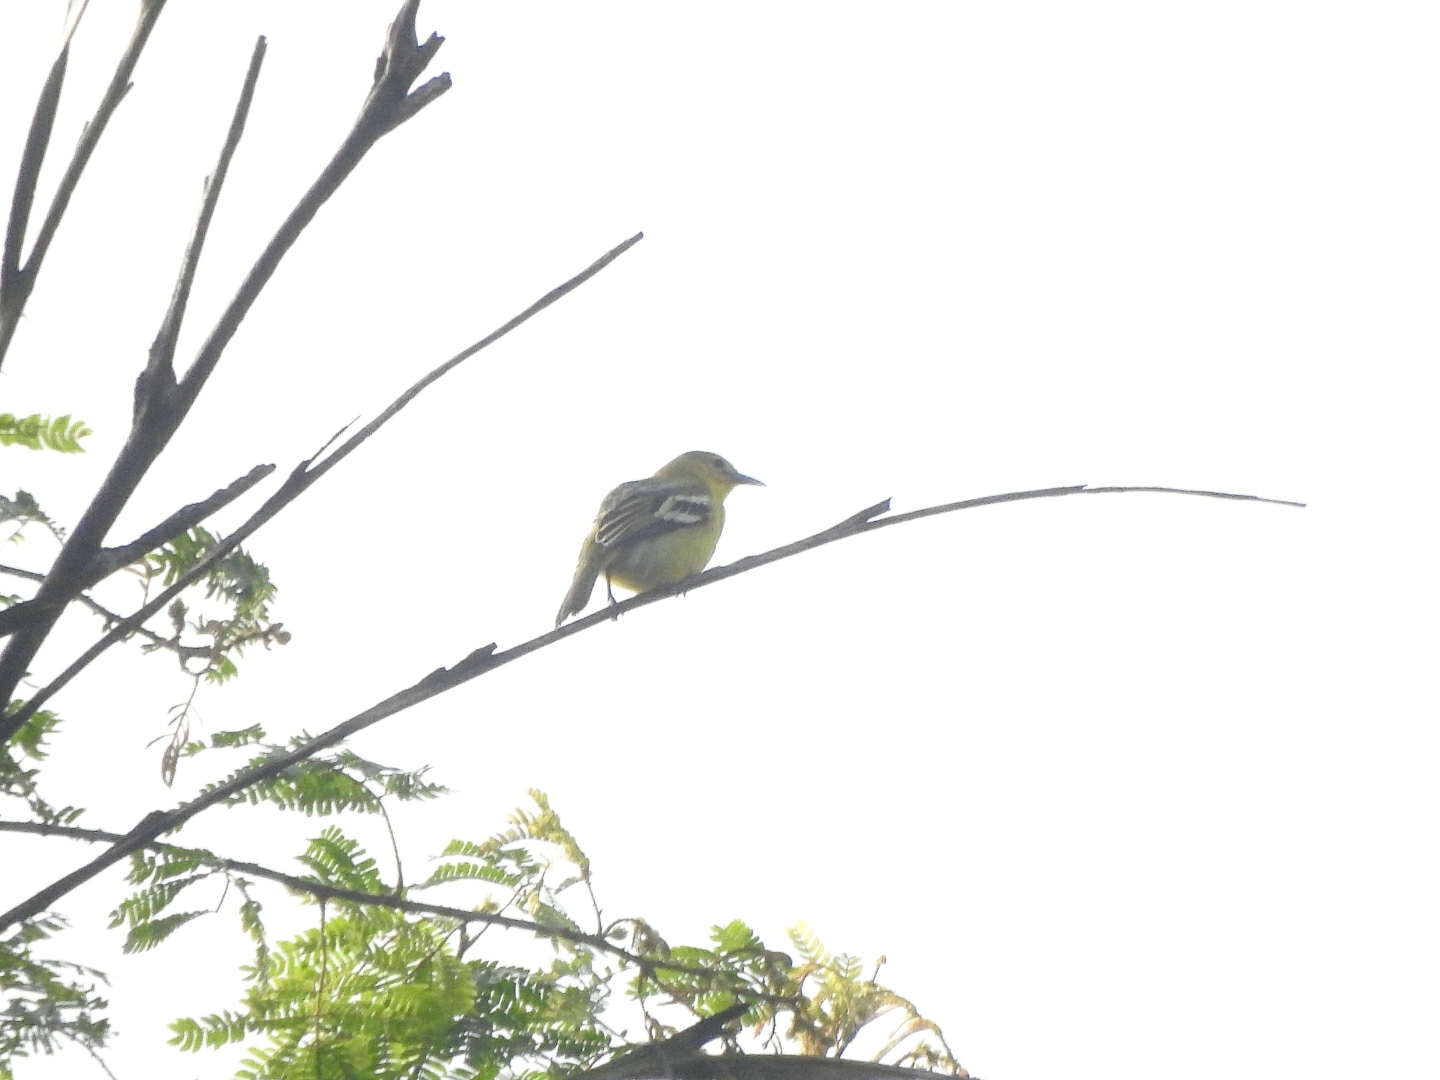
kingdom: Animalia
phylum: Chordata
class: Aves
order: Passeriformes
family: Aegithinidae
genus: Aegithina
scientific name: Aegithina tiphia
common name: Common iora
